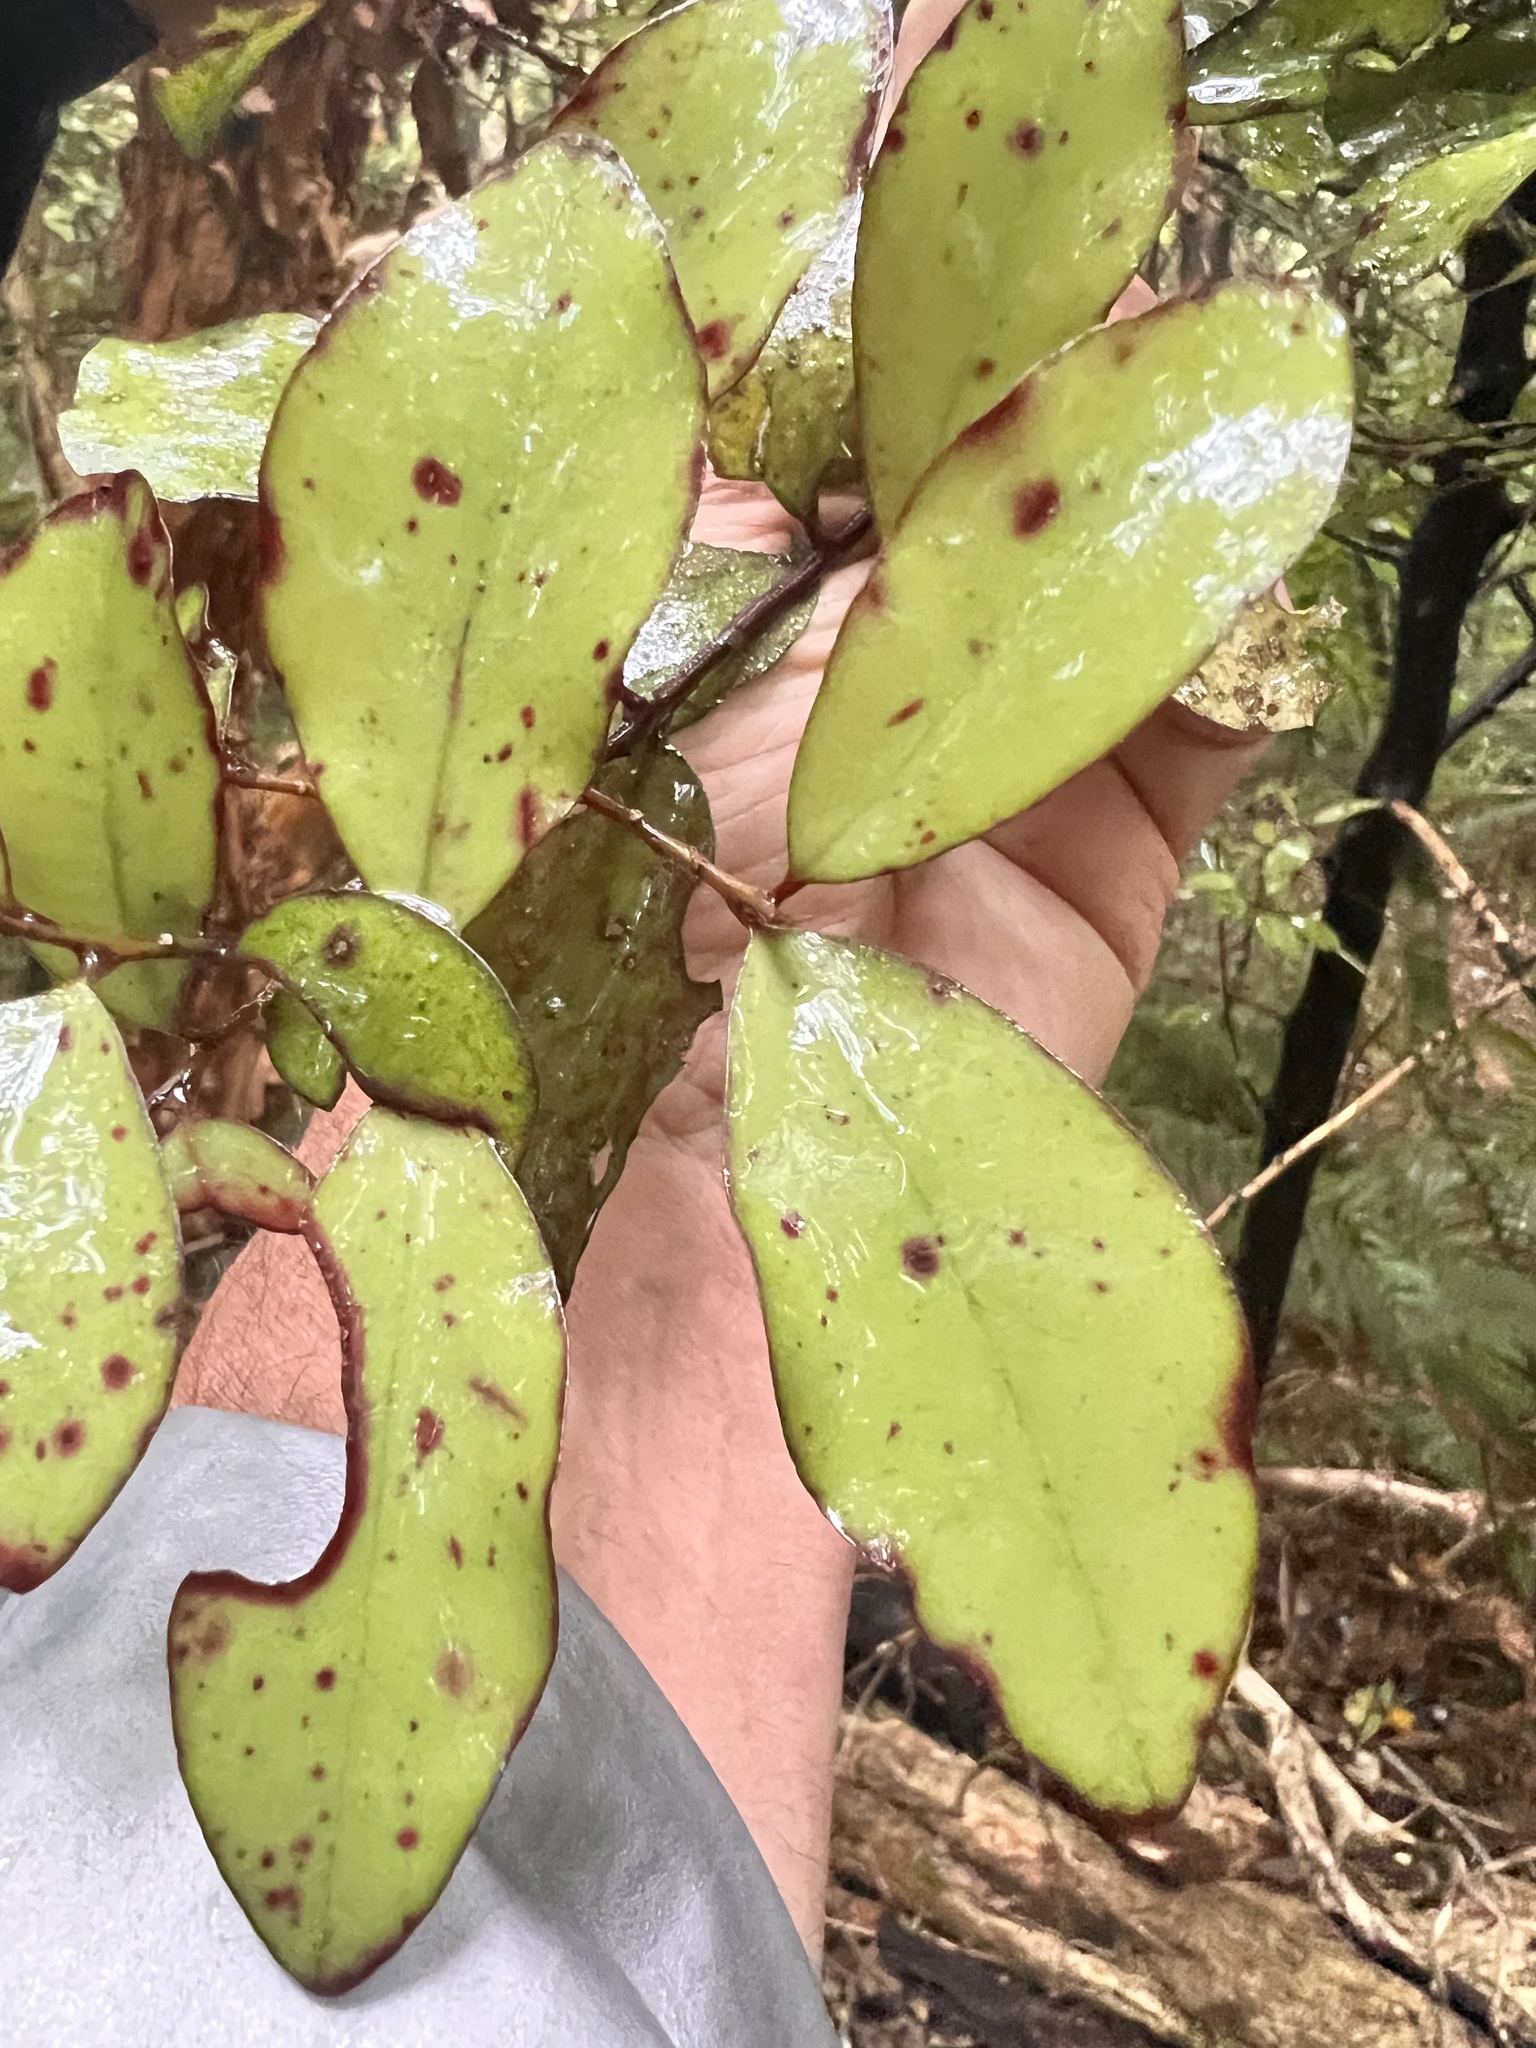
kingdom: Plantae
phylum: Tracheophyta
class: Magnoliopsida
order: Canellales
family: Winteraceae
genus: Pseudowintera
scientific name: Pseudowintera colorata
